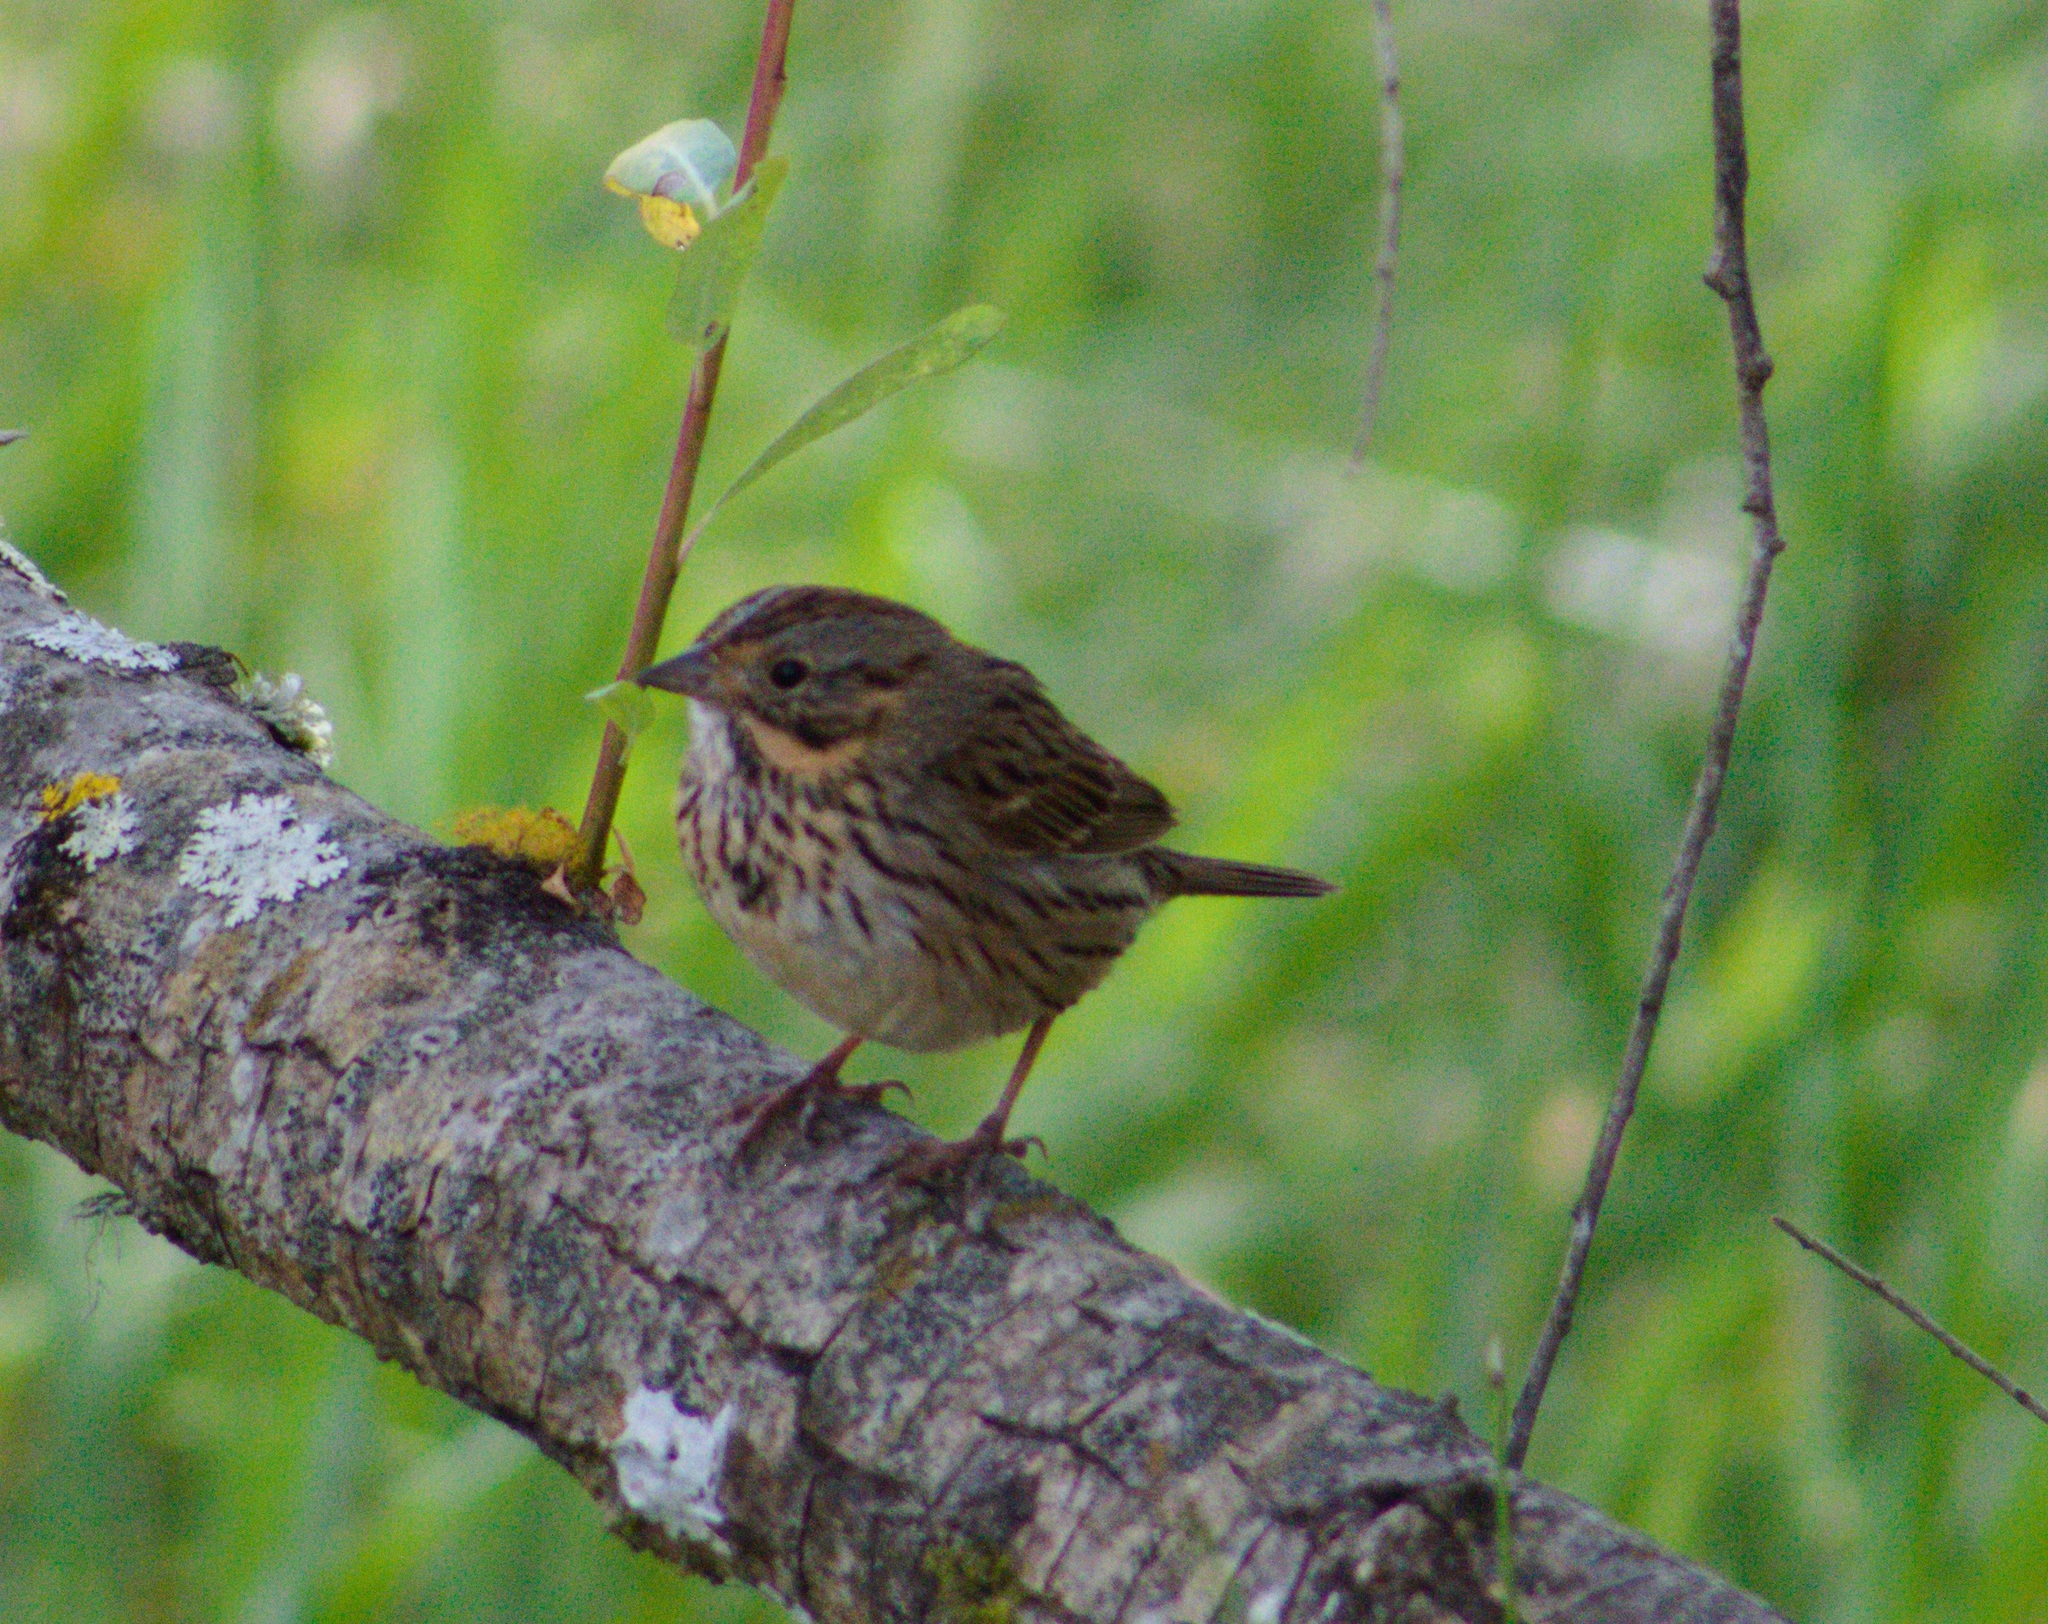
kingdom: Animalia
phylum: Chordata
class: Aves
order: Passeriformes
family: Passerellidae
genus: Melospiza
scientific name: Melospiza lincolnii
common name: Lincoln's sparrow
